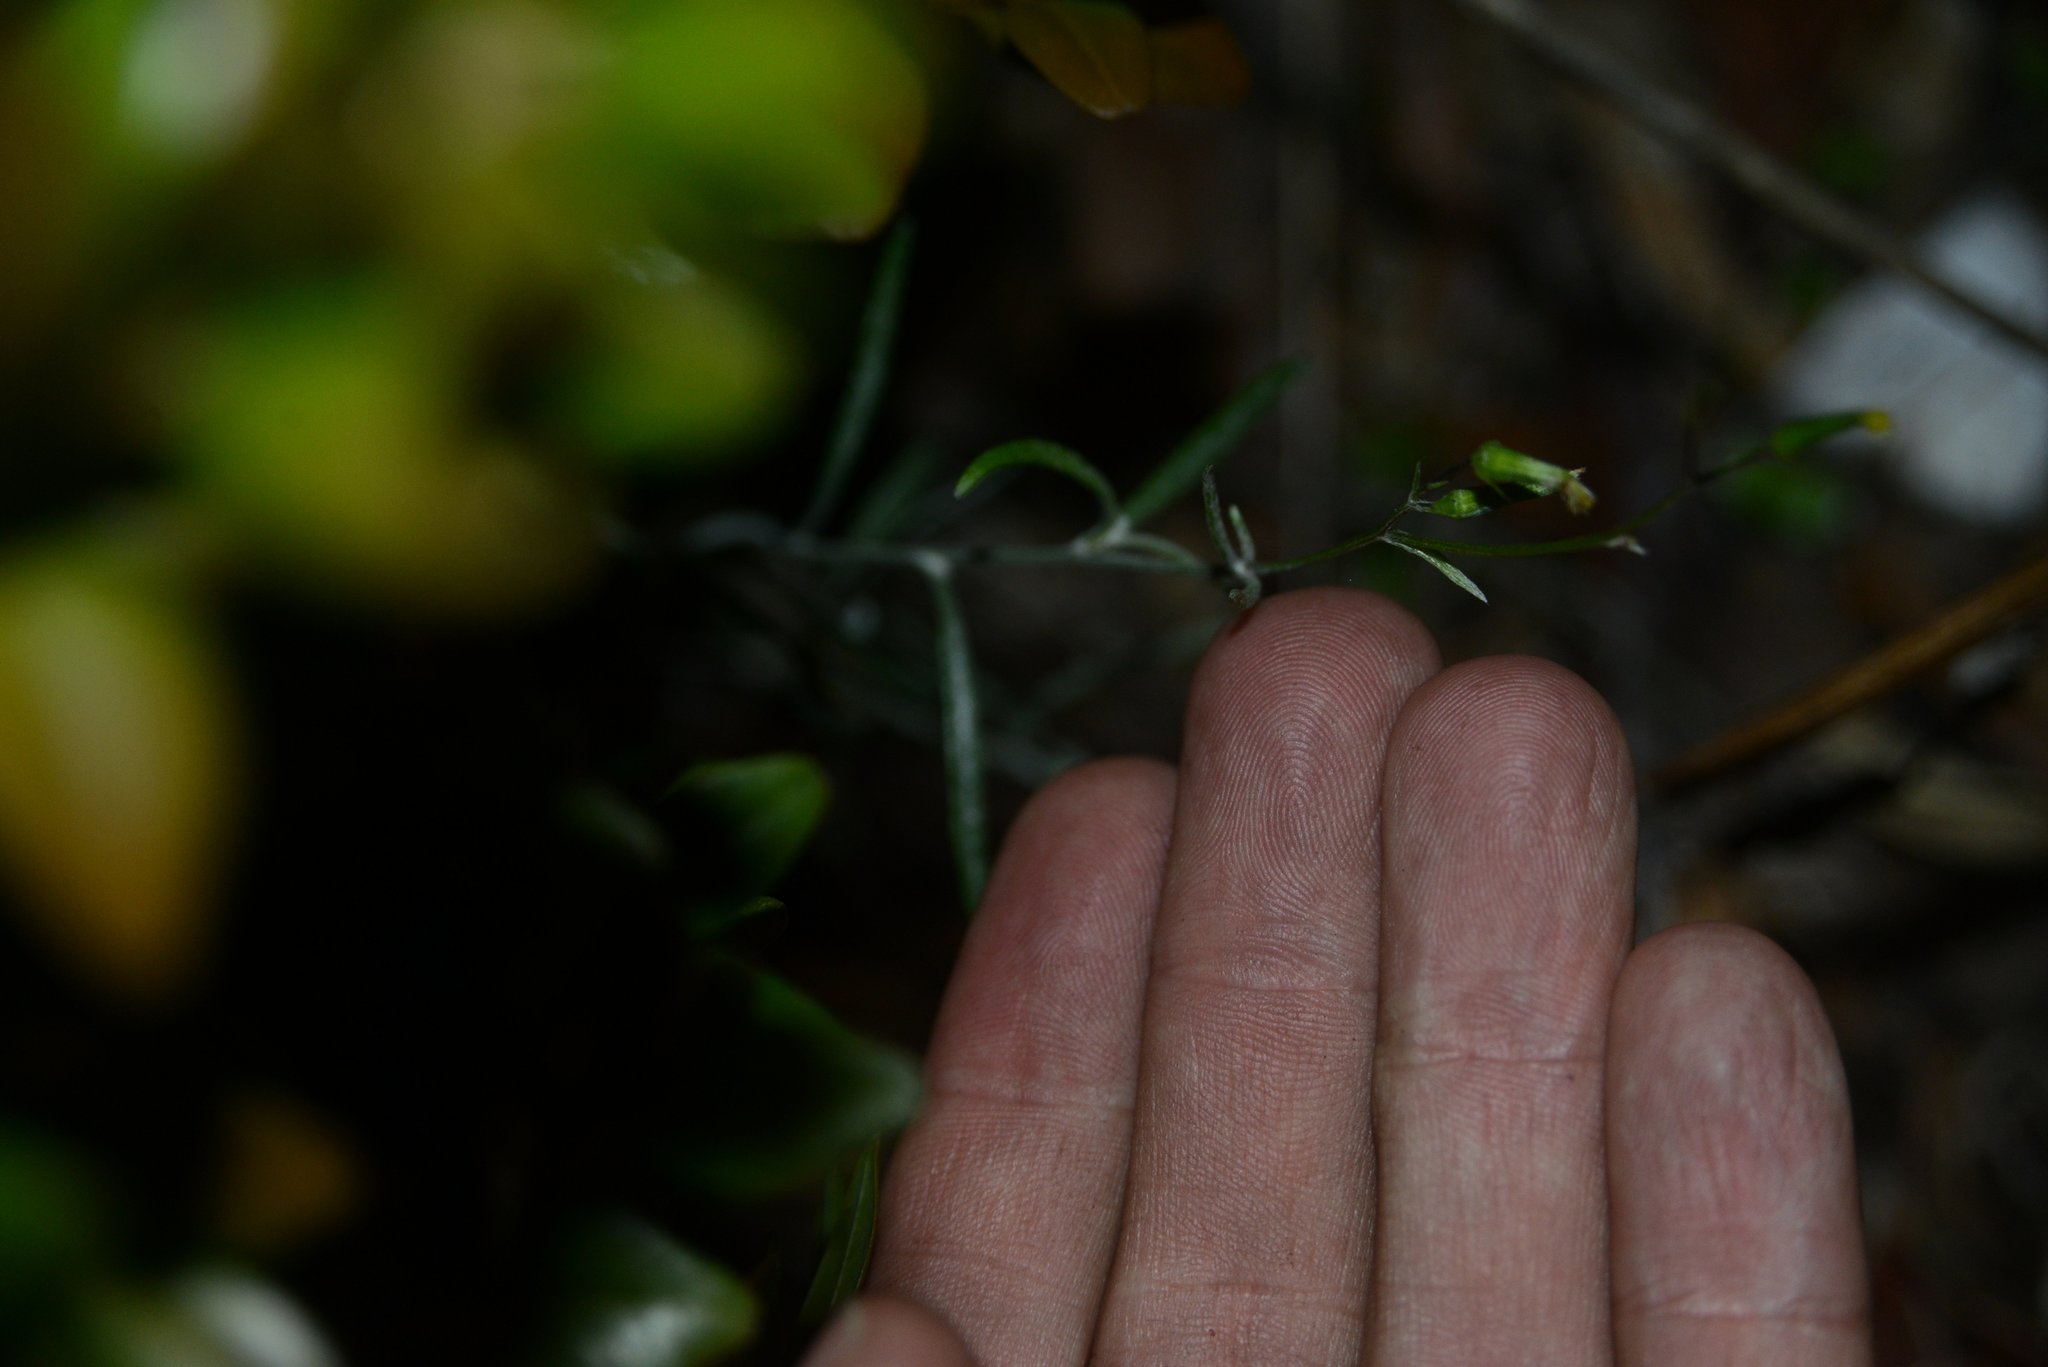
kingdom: Plantae
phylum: Tracheophyta
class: Magnoliopsida
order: Asterales
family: Asteraceae
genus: Senecio
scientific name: Senecio quadridentatus
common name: Cotton fireweed
